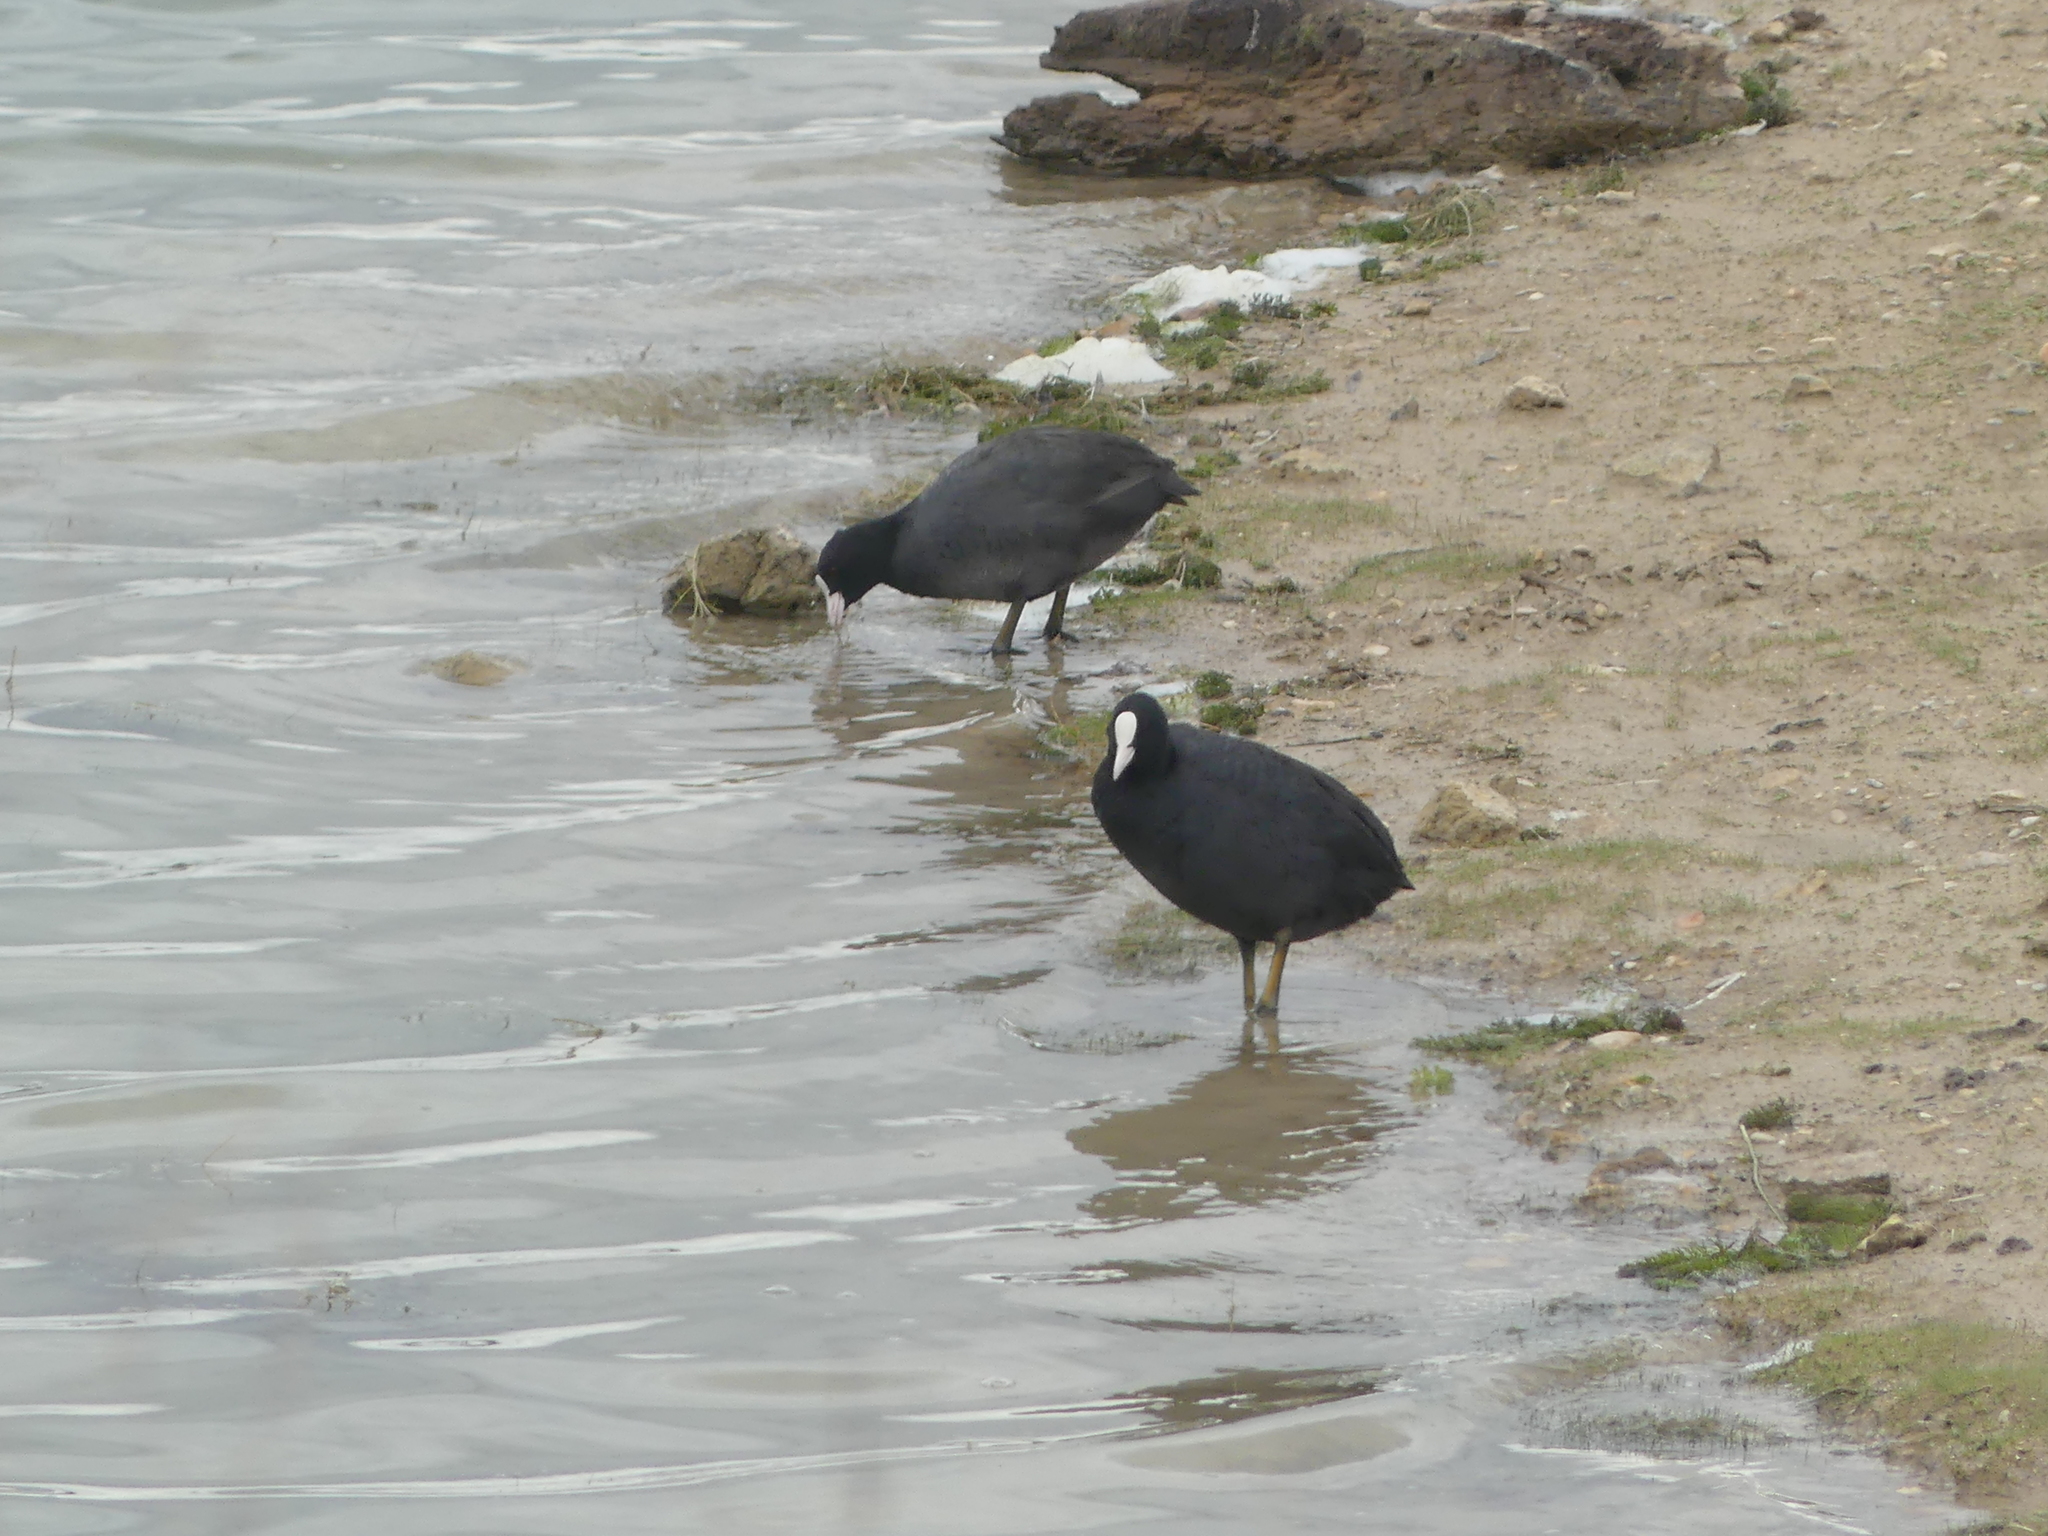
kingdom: Animalia
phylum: Chordata
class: Aves
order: Gruiformes
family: Rallidae
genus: Fulica
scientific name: Fulica atra
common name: Eurasian coot
